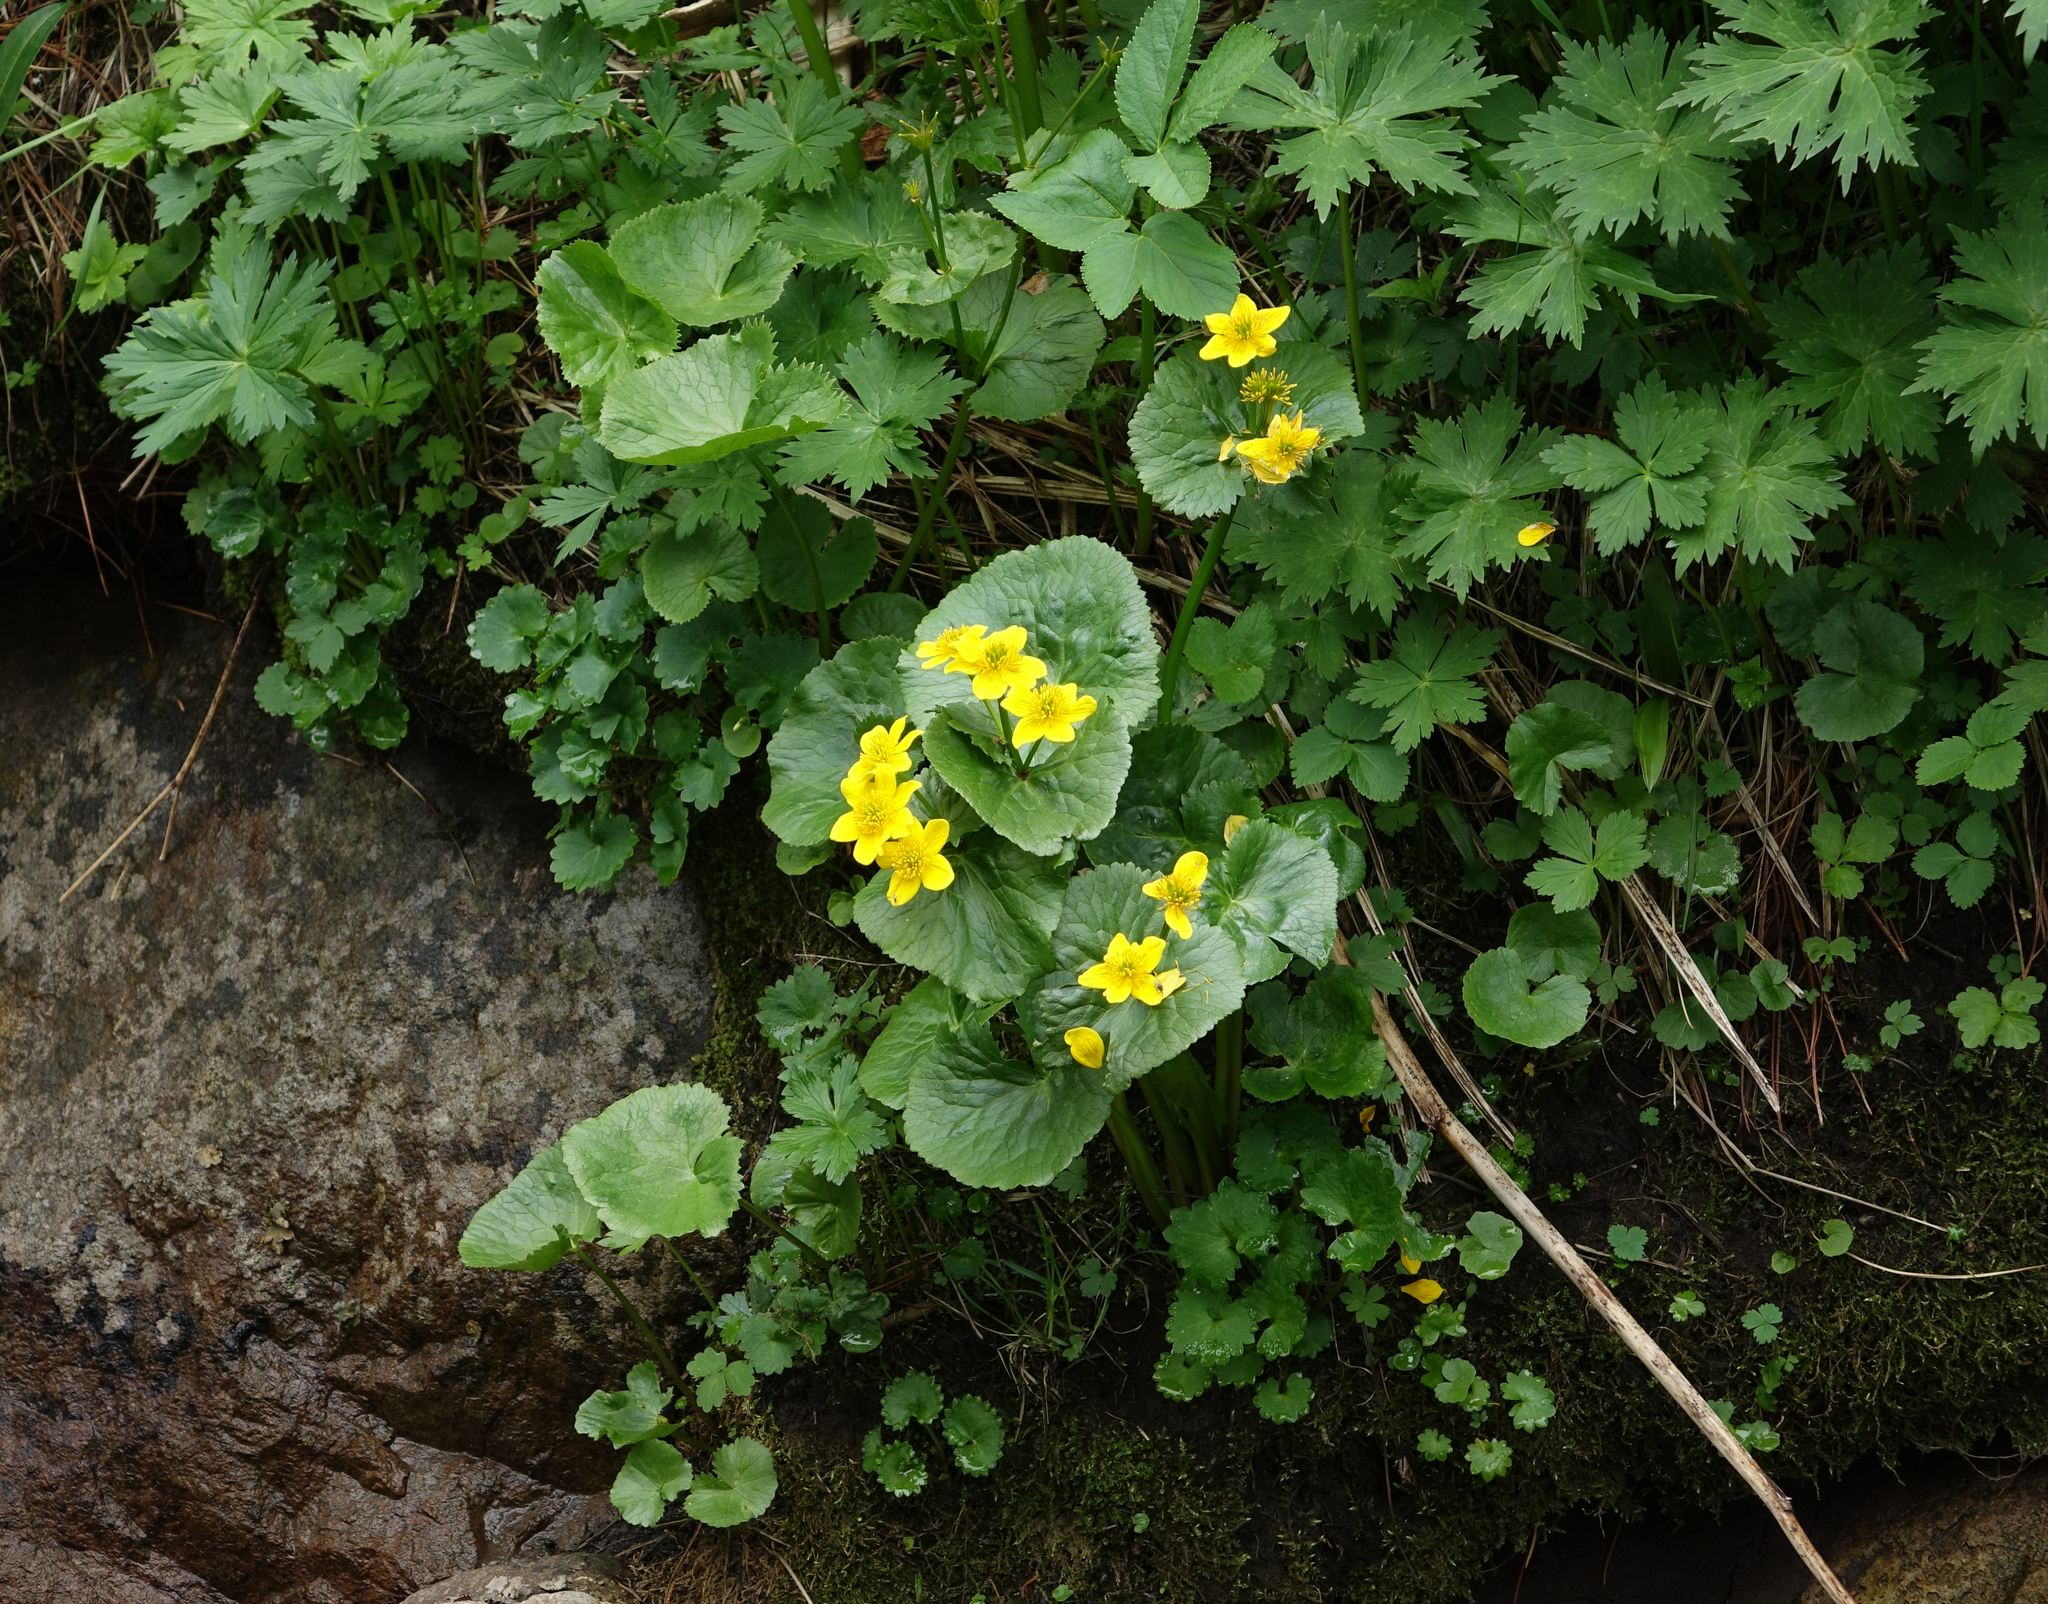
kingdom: Plantae
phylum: Tracheophyta
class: Magnoliopsida
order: Ranunculales
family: Ranunculaceae
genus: Caltha
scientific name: Caltha palustris
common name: Marsh marigold
